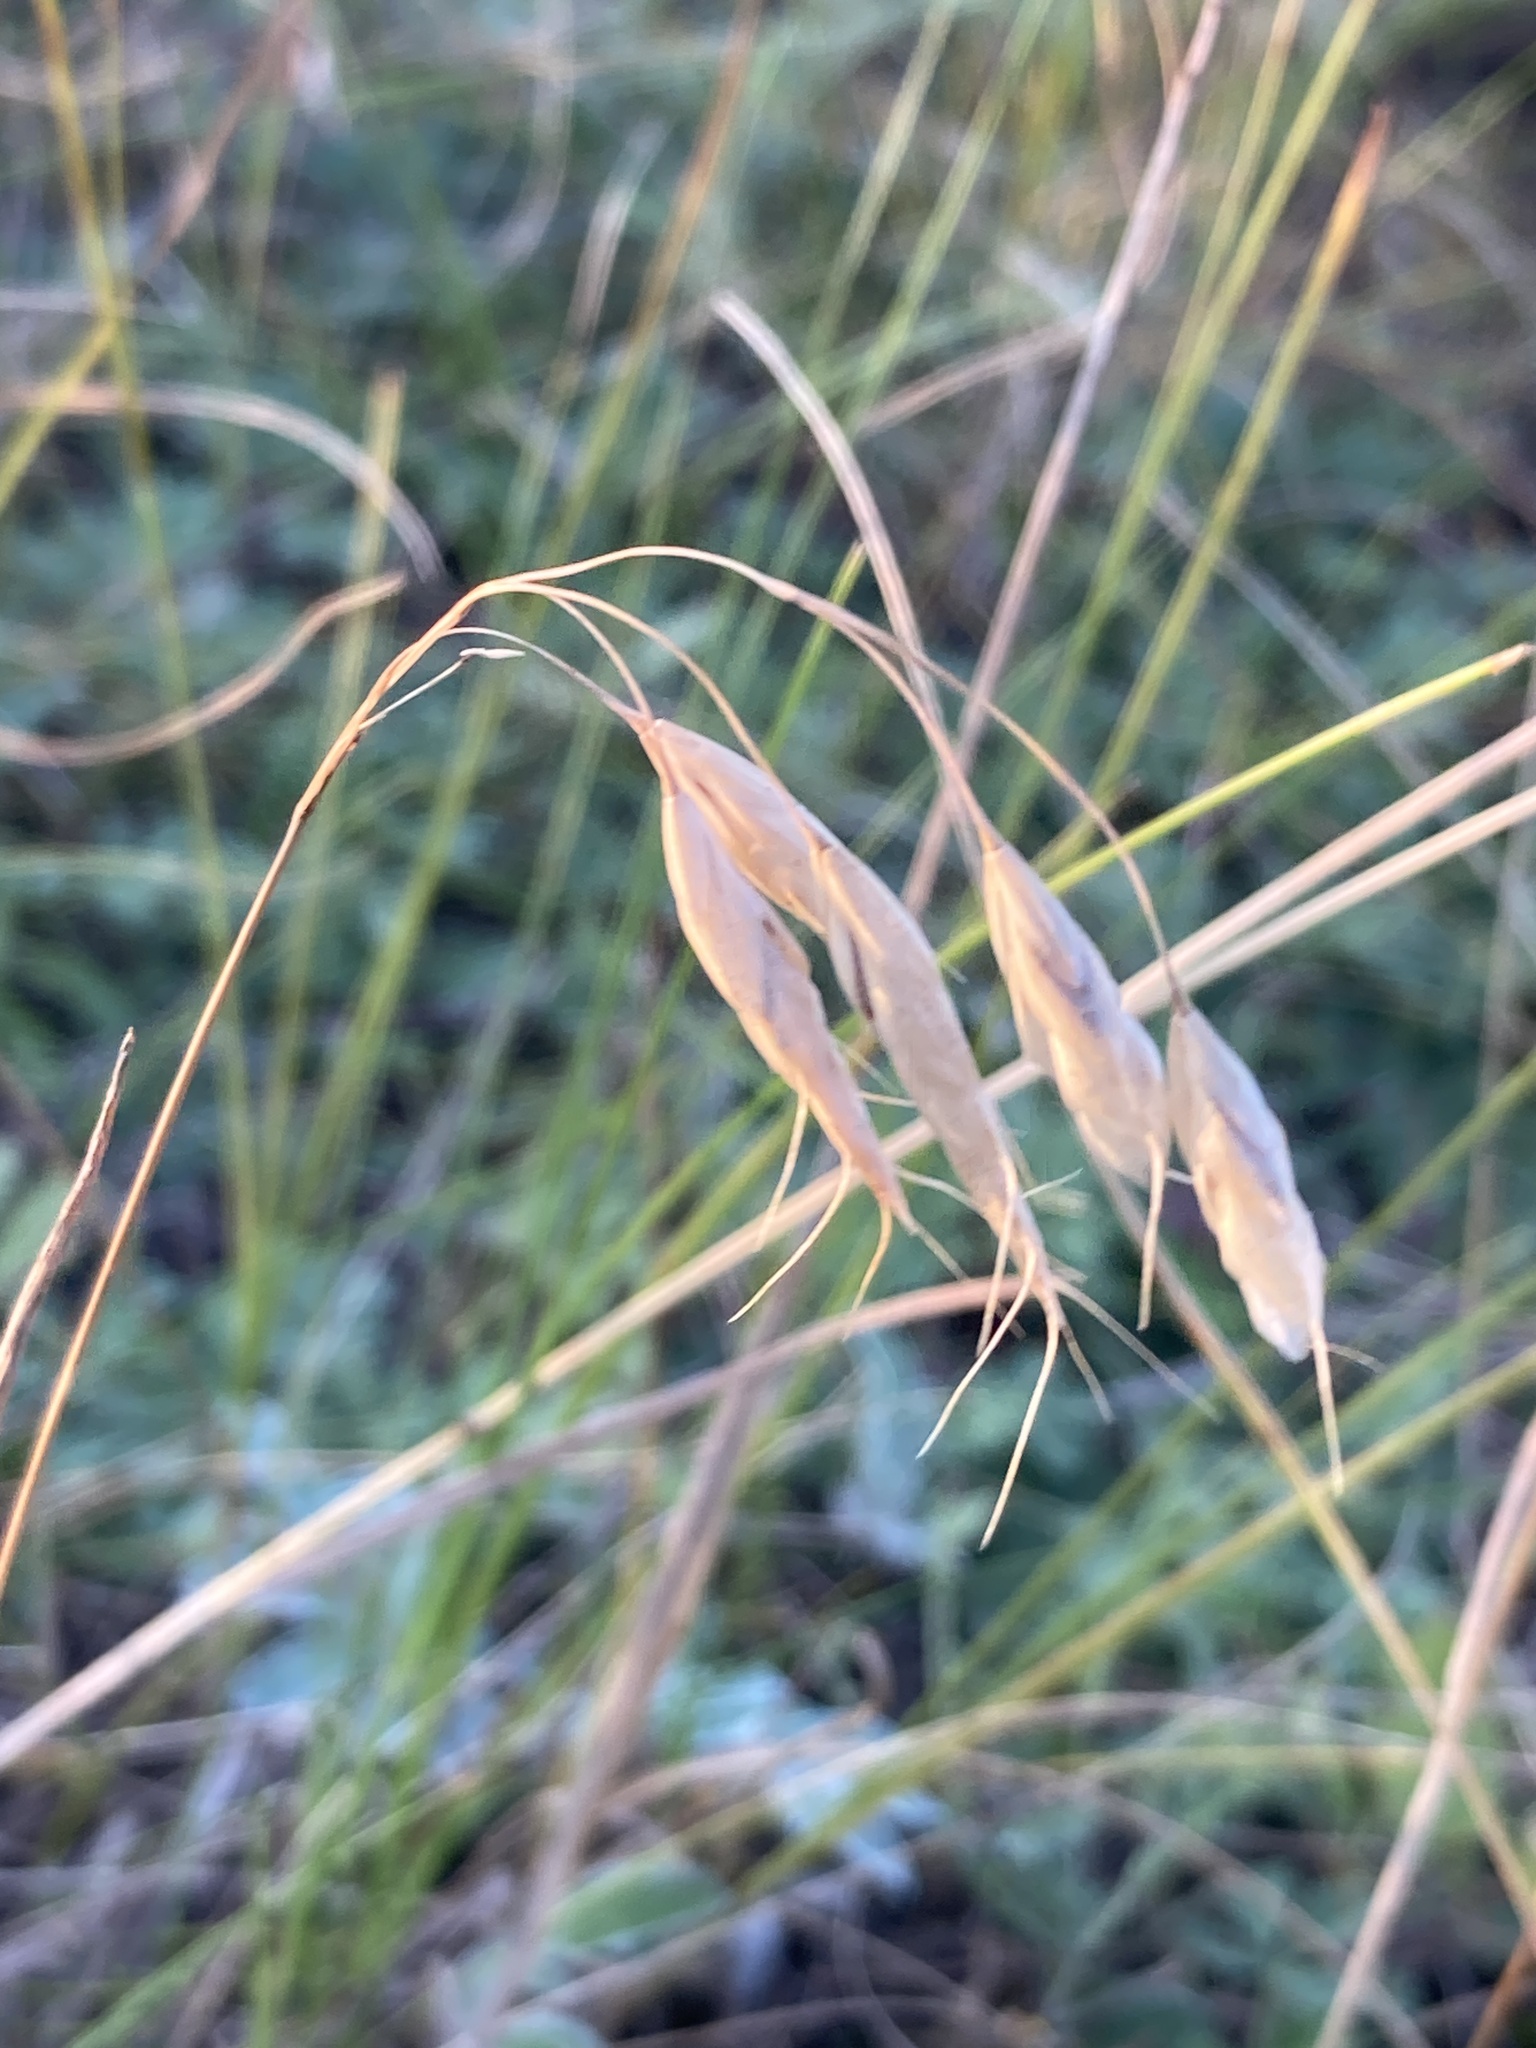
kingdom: Plantae
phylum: Tracheophyta
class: Liliopsida
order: Poales
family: Poaceae
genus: Bromus
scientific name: Bromus squarrosus
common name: Corn brome
